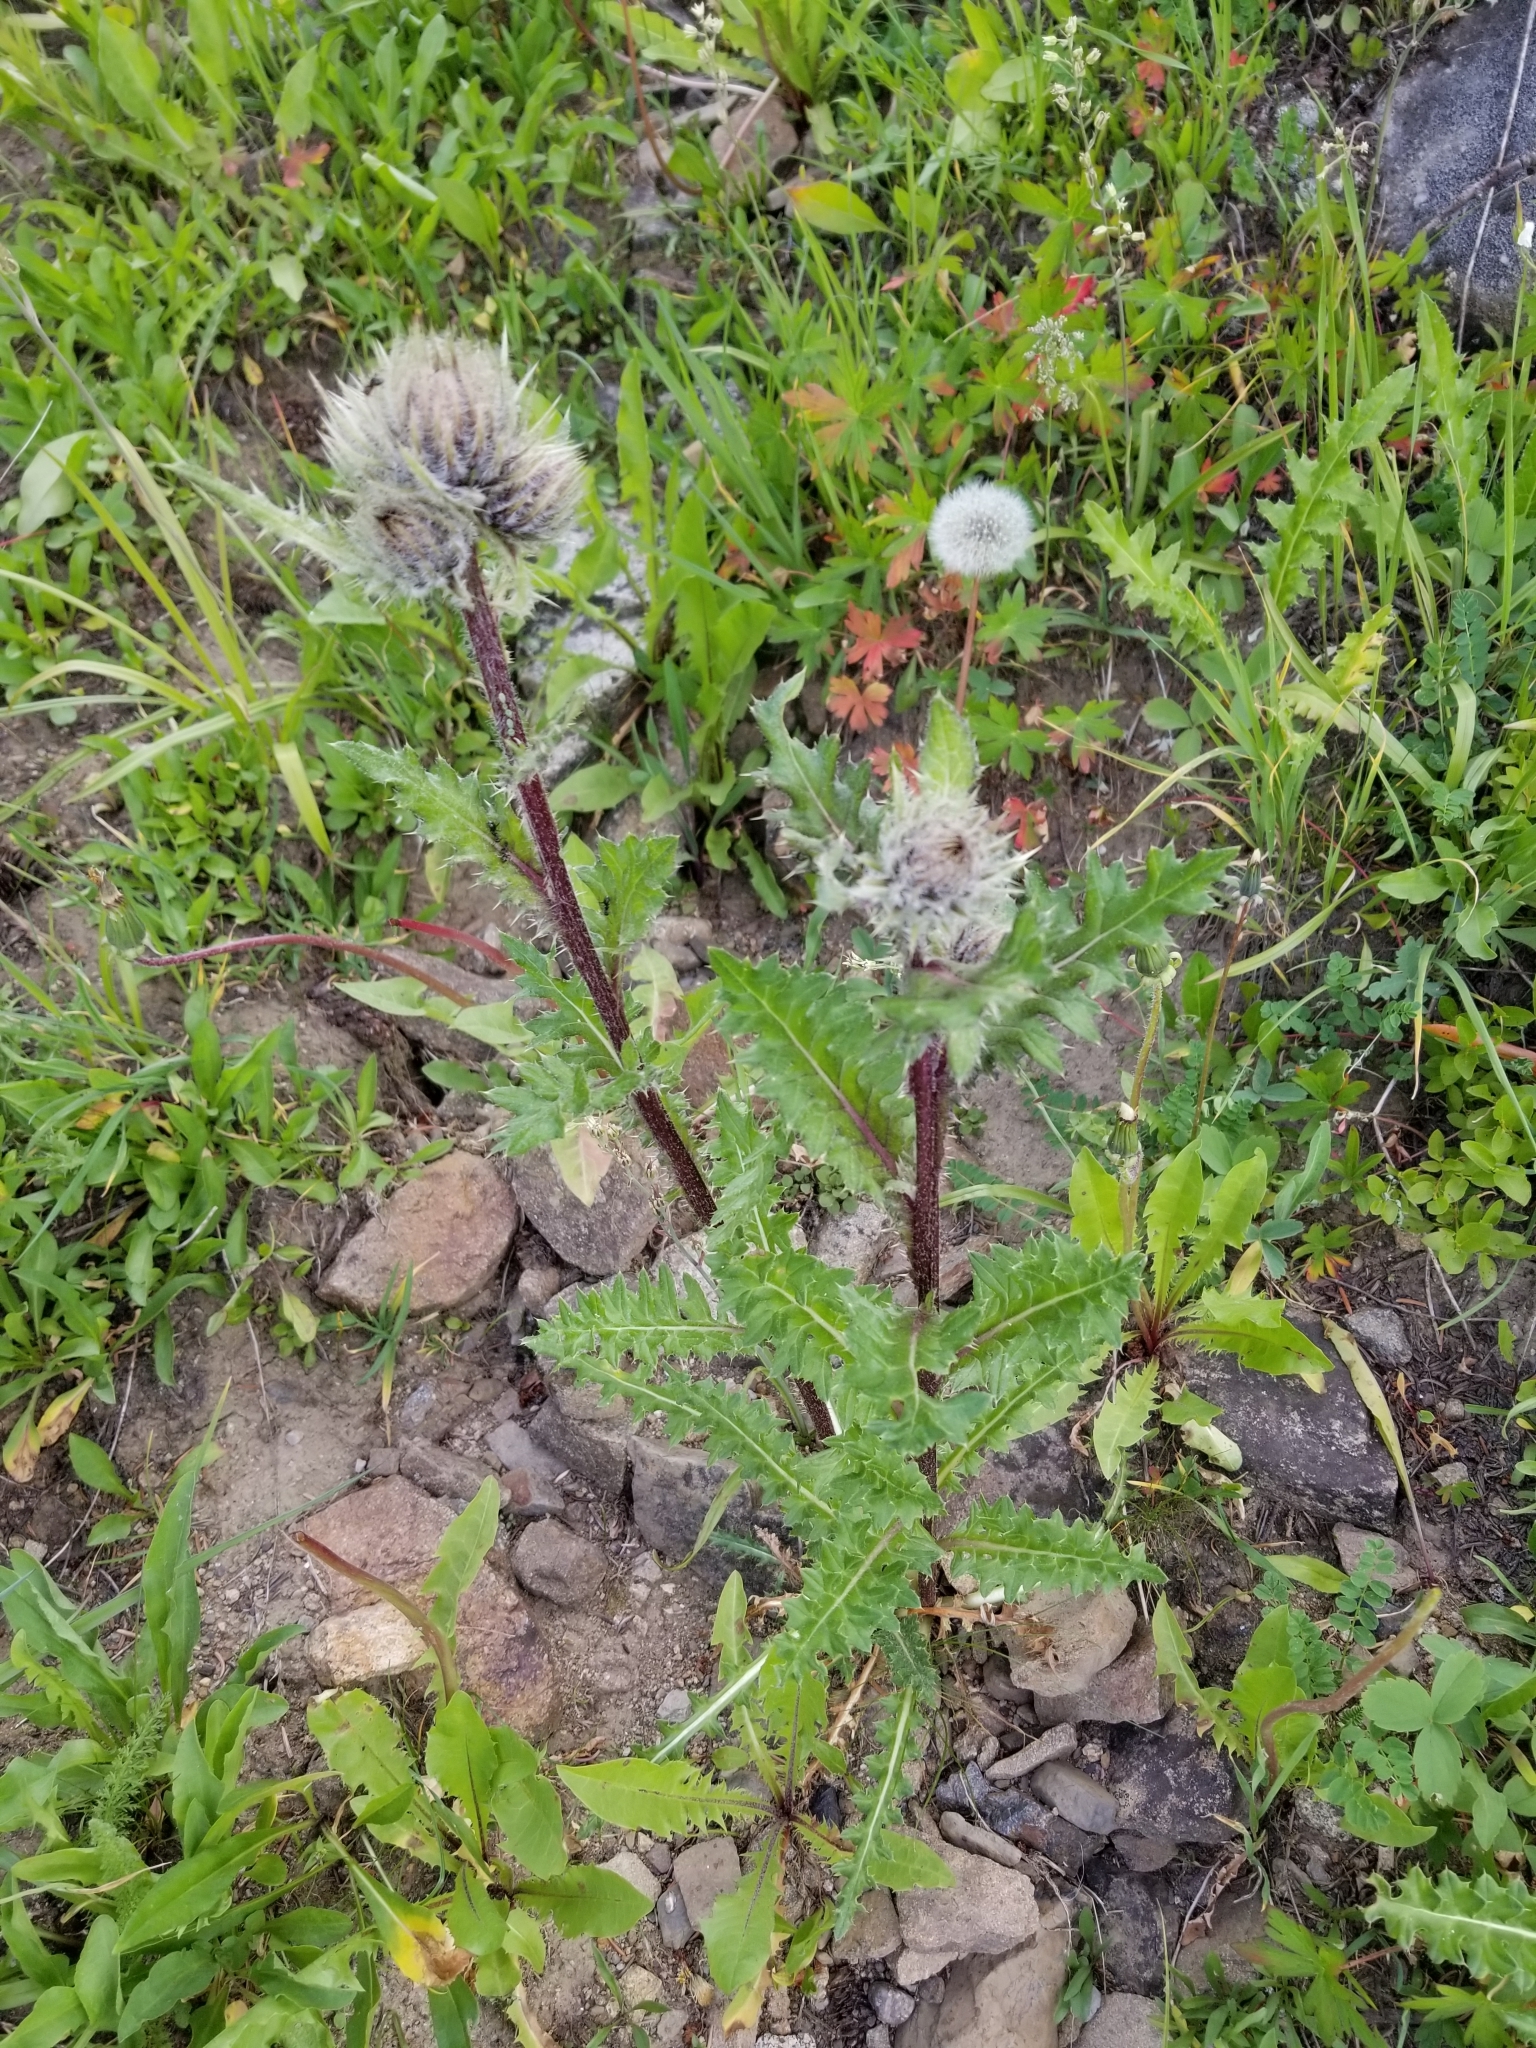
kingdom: Plantae
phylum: Tracheophyta
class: Magnoliopsida
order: Asterales
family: Asteraceae
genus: Cirsium
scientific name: Cirsium griseum
